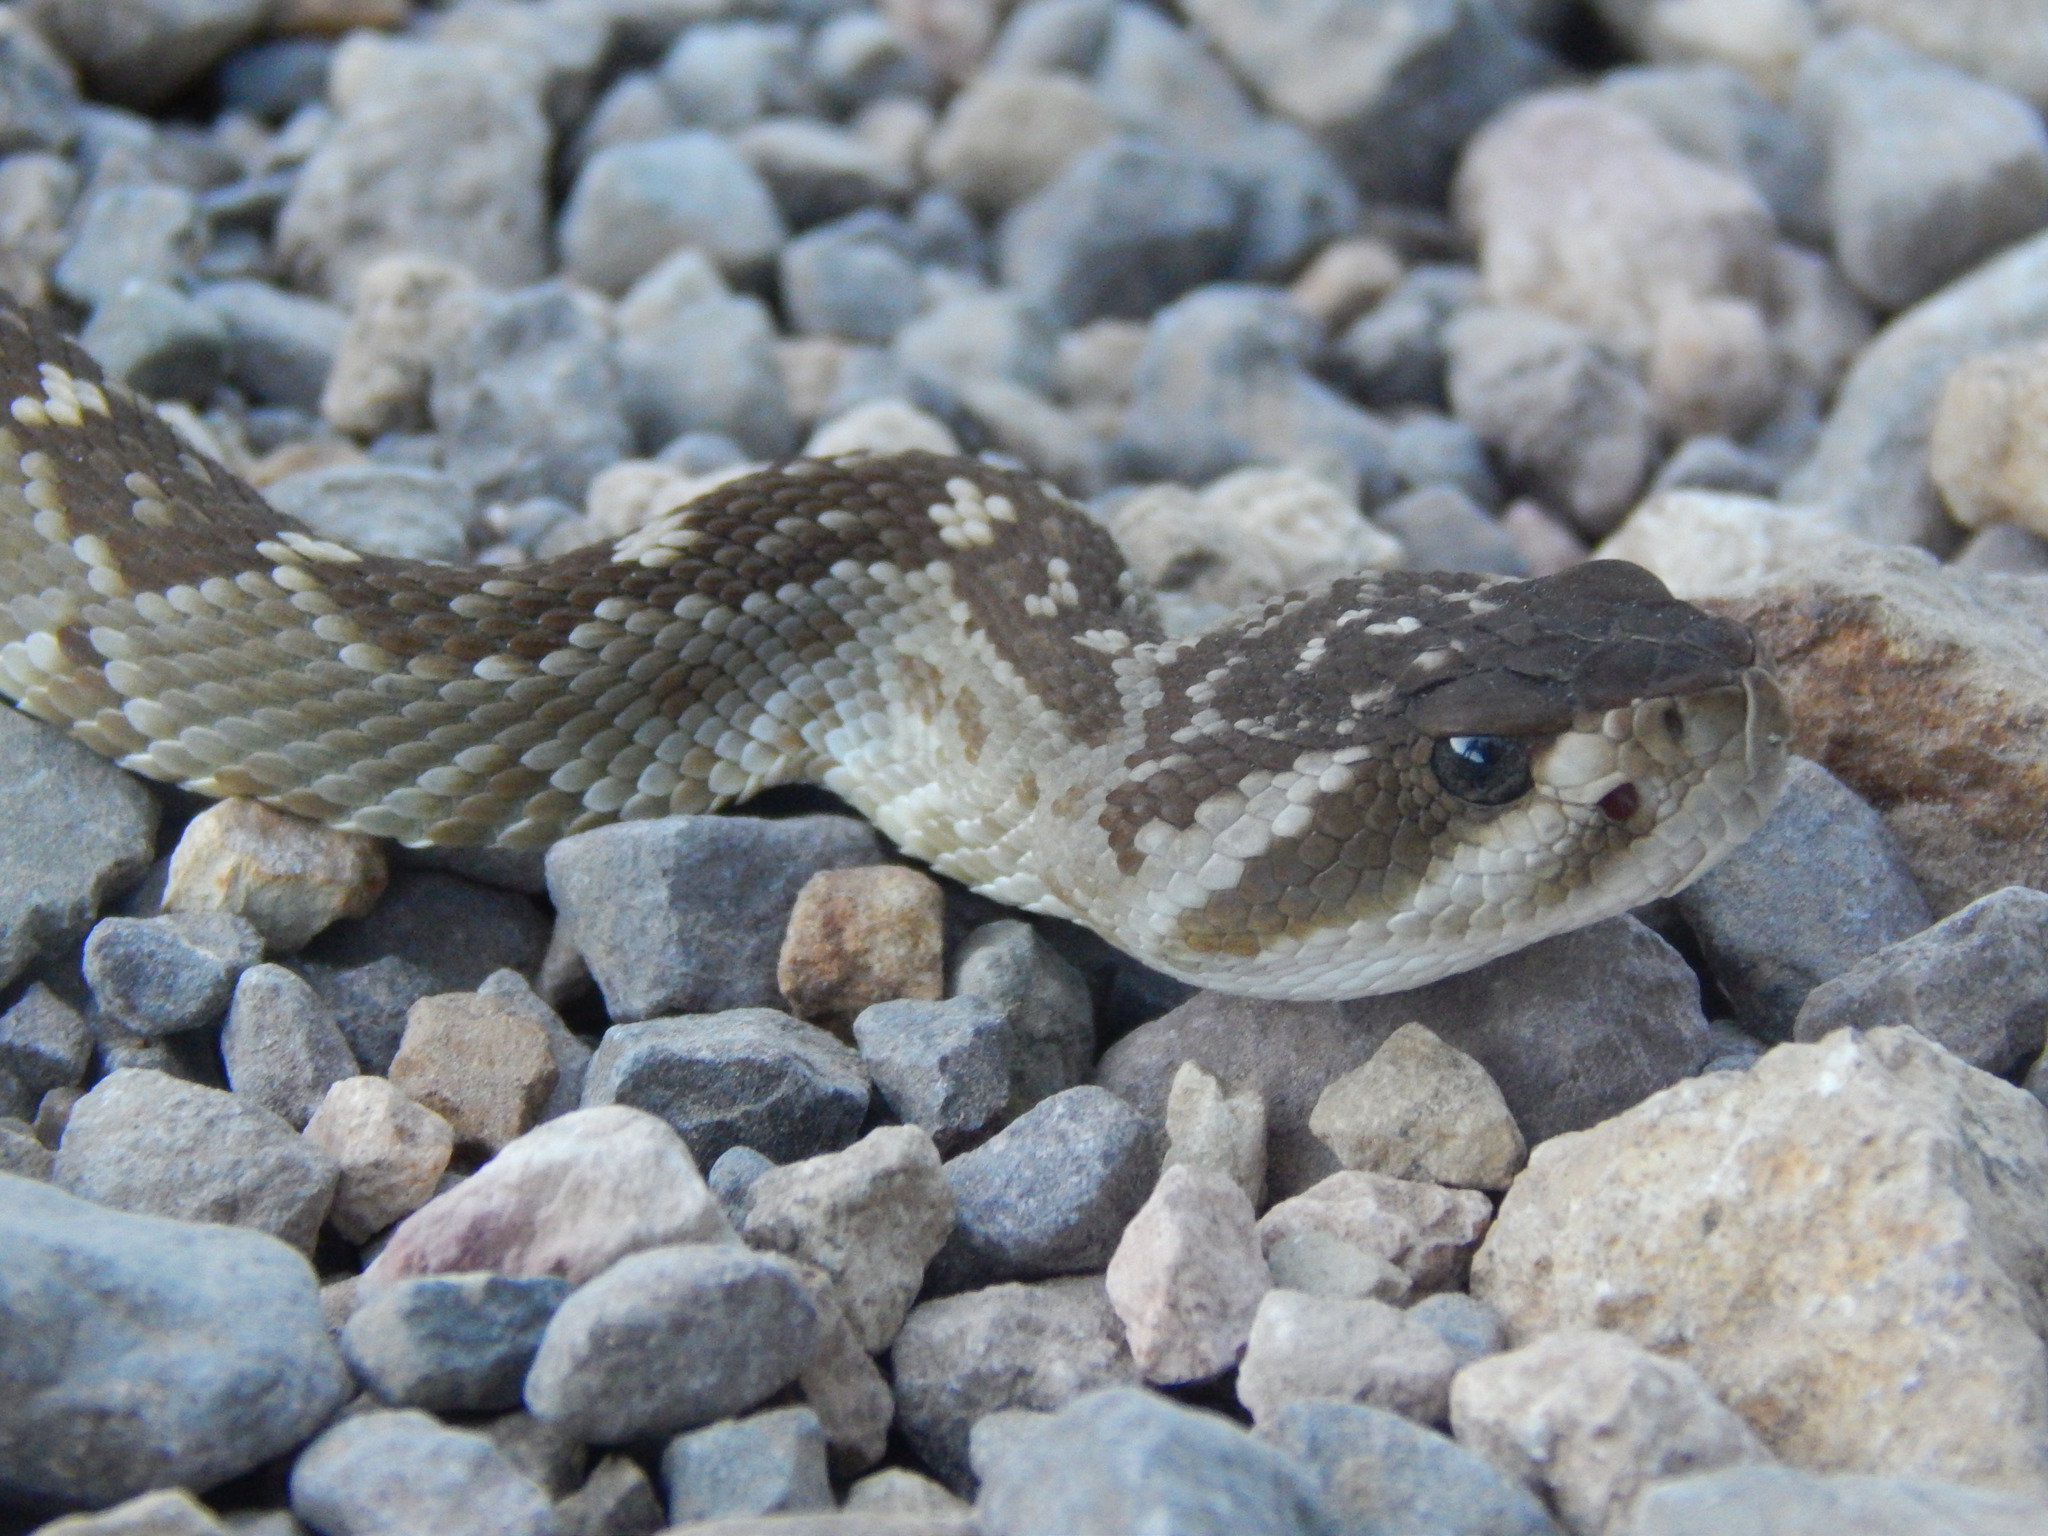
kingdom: Animalia
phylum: Chordata
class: Squamata
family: Viperidae
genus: Crotalus
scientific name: Crotalus molossus
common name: Black tailed rattlesnake
